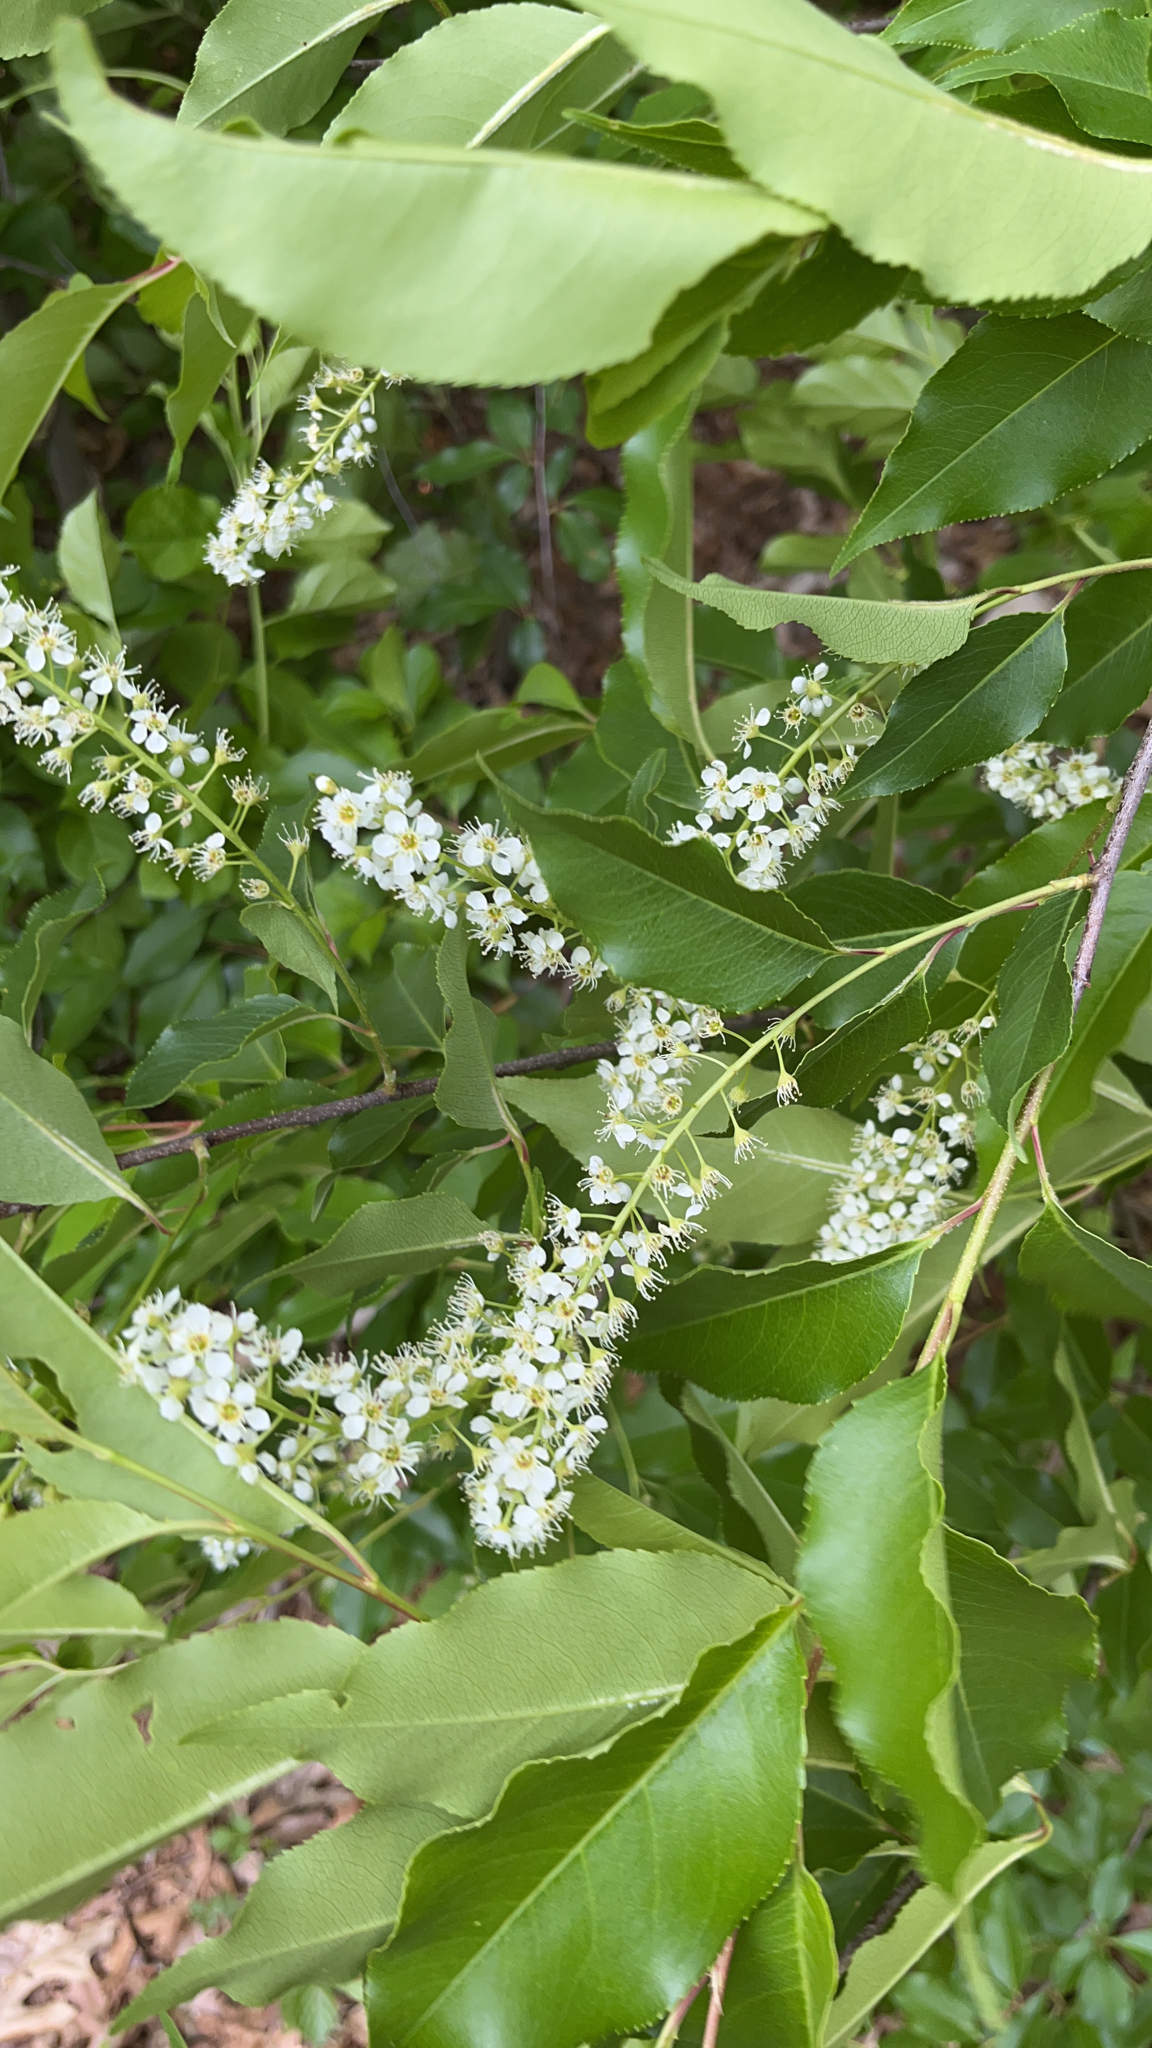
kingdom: Plantae
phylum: Tracheophyta
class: Magnoliopsida
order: Rosales
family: Rosaceae
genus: Prunus
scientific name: Prunus serotina
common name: Black cherry
